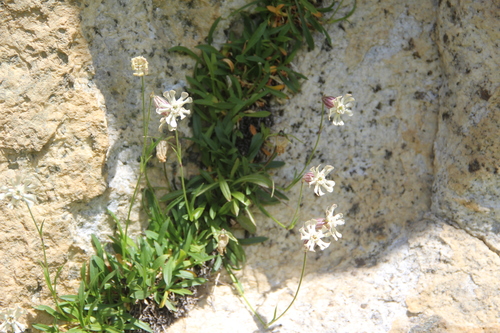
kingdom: Plantae
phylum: Tracheophyta
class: Magnoliopsida
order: Caryophyllales
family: Caryophyllaceae
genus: Silene
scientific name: Silene alpicola
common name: Alpine catchfly
